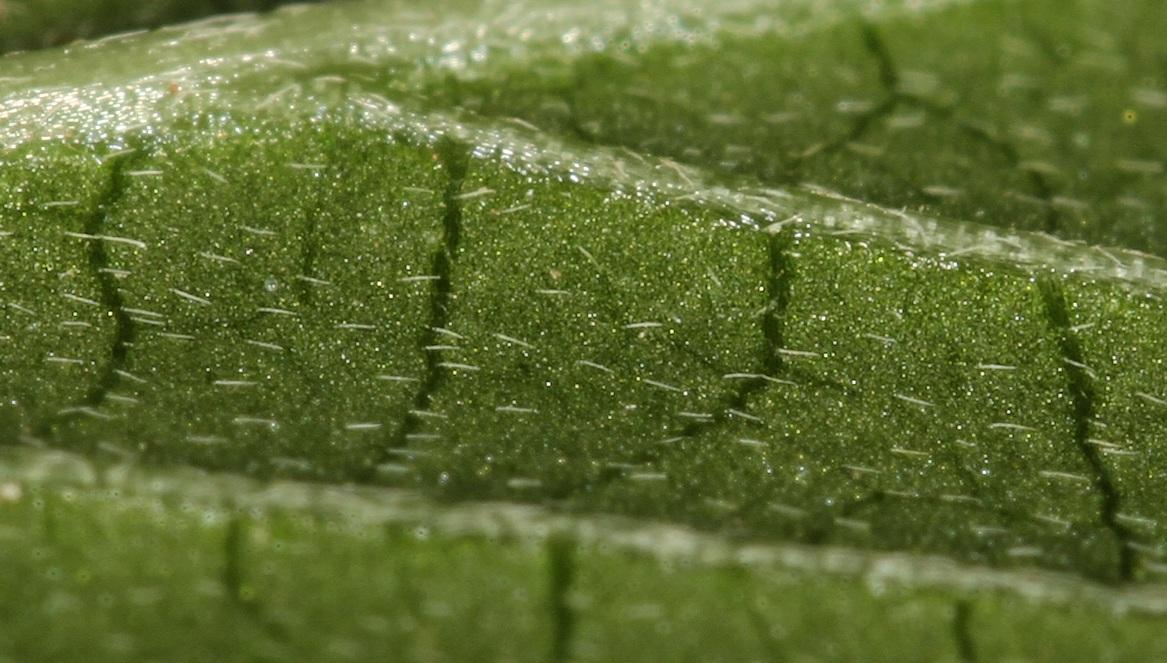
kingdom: Plantae
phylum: Tracheophyta
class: Magnoliopsida
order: Caryophyllales
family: Amaranthaceae
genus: Achyranthes
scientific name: Achyranthes aspera
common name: Devil's horsewhip
